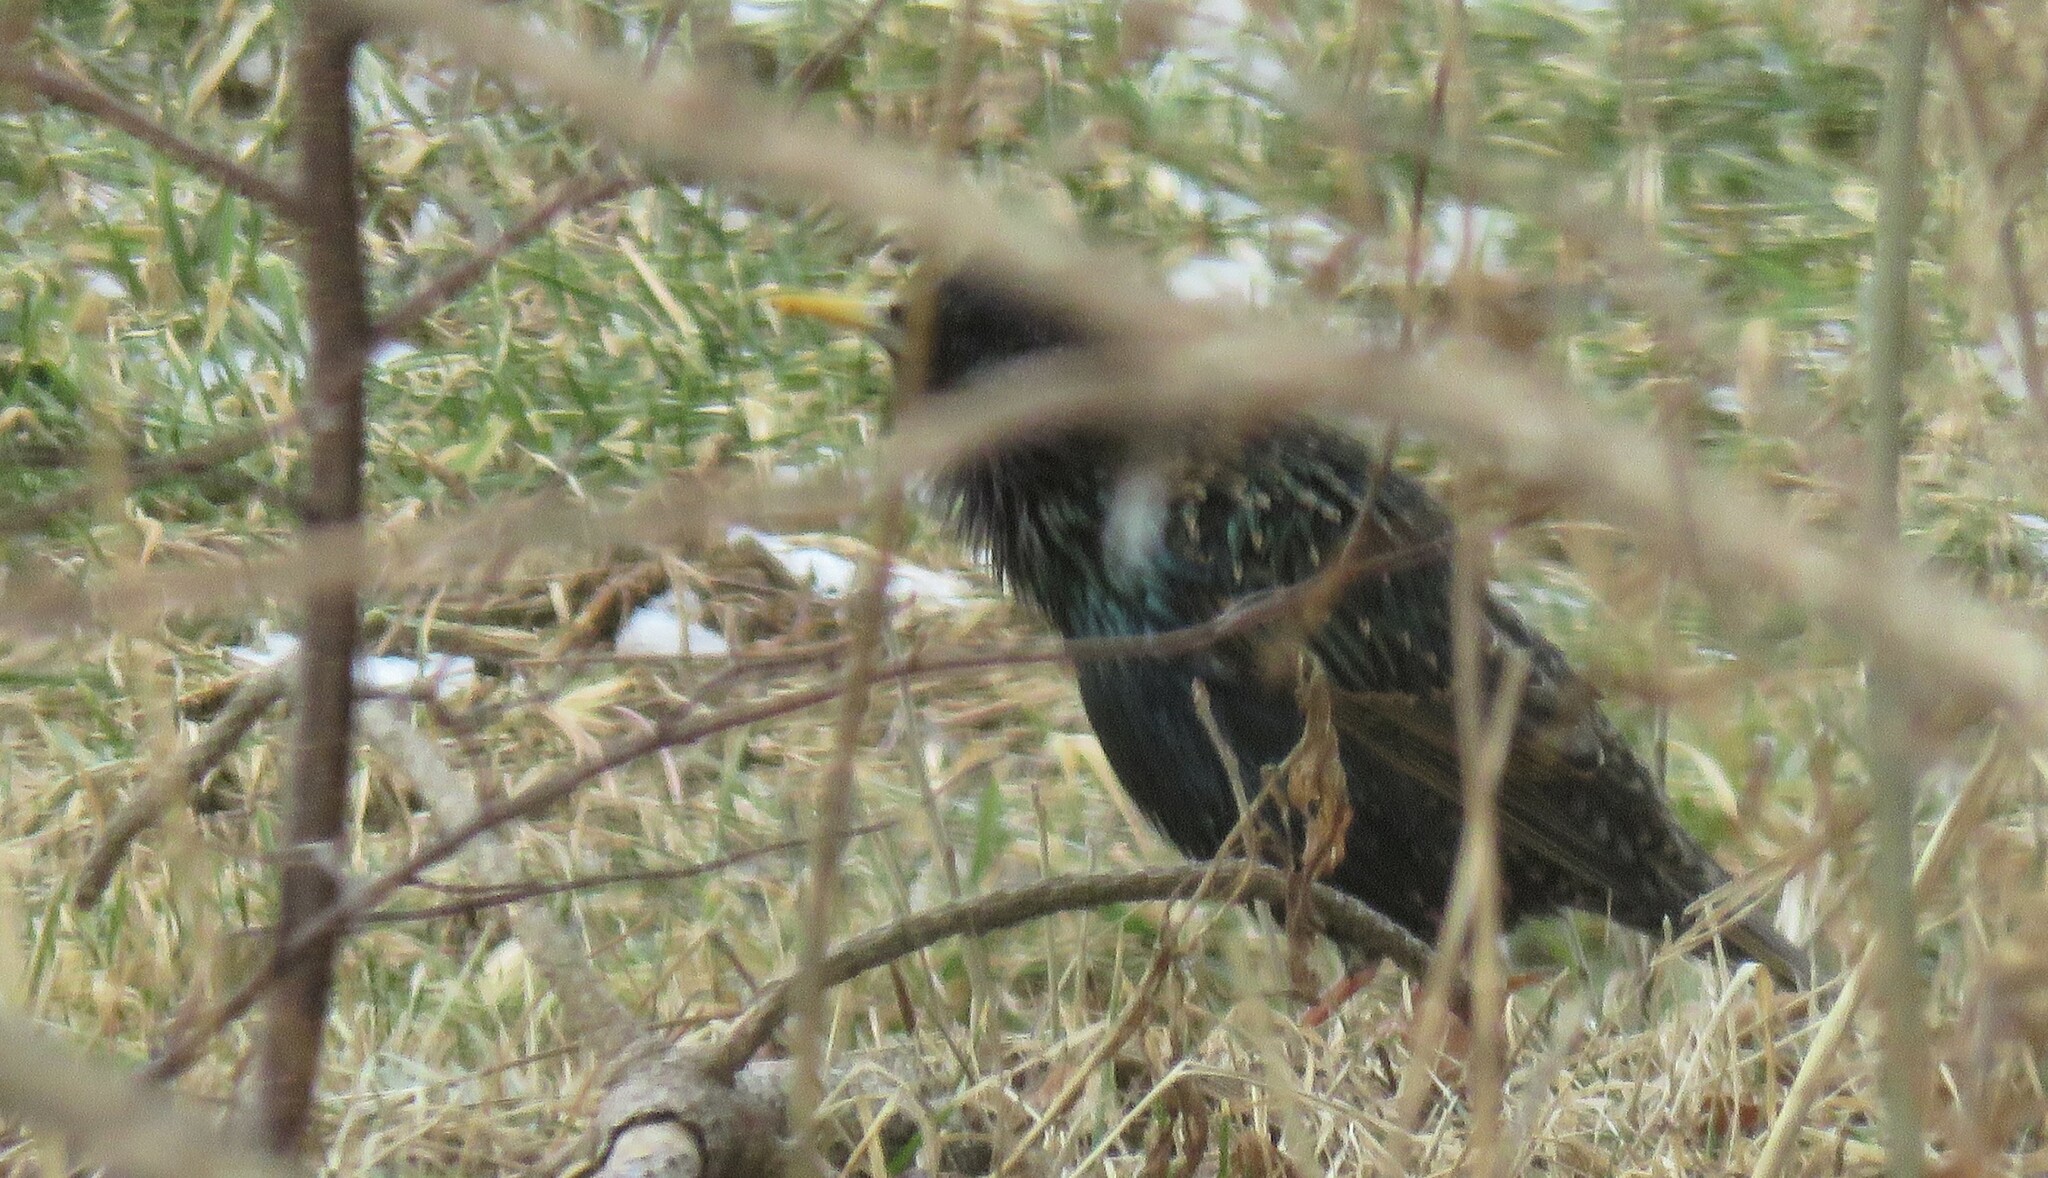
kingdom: Animalia
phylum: Chordata
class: Aves
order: Passeriformes
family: Sturnidae
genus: Sturnus
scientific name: Sturnus vulgaris
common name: Common starling
